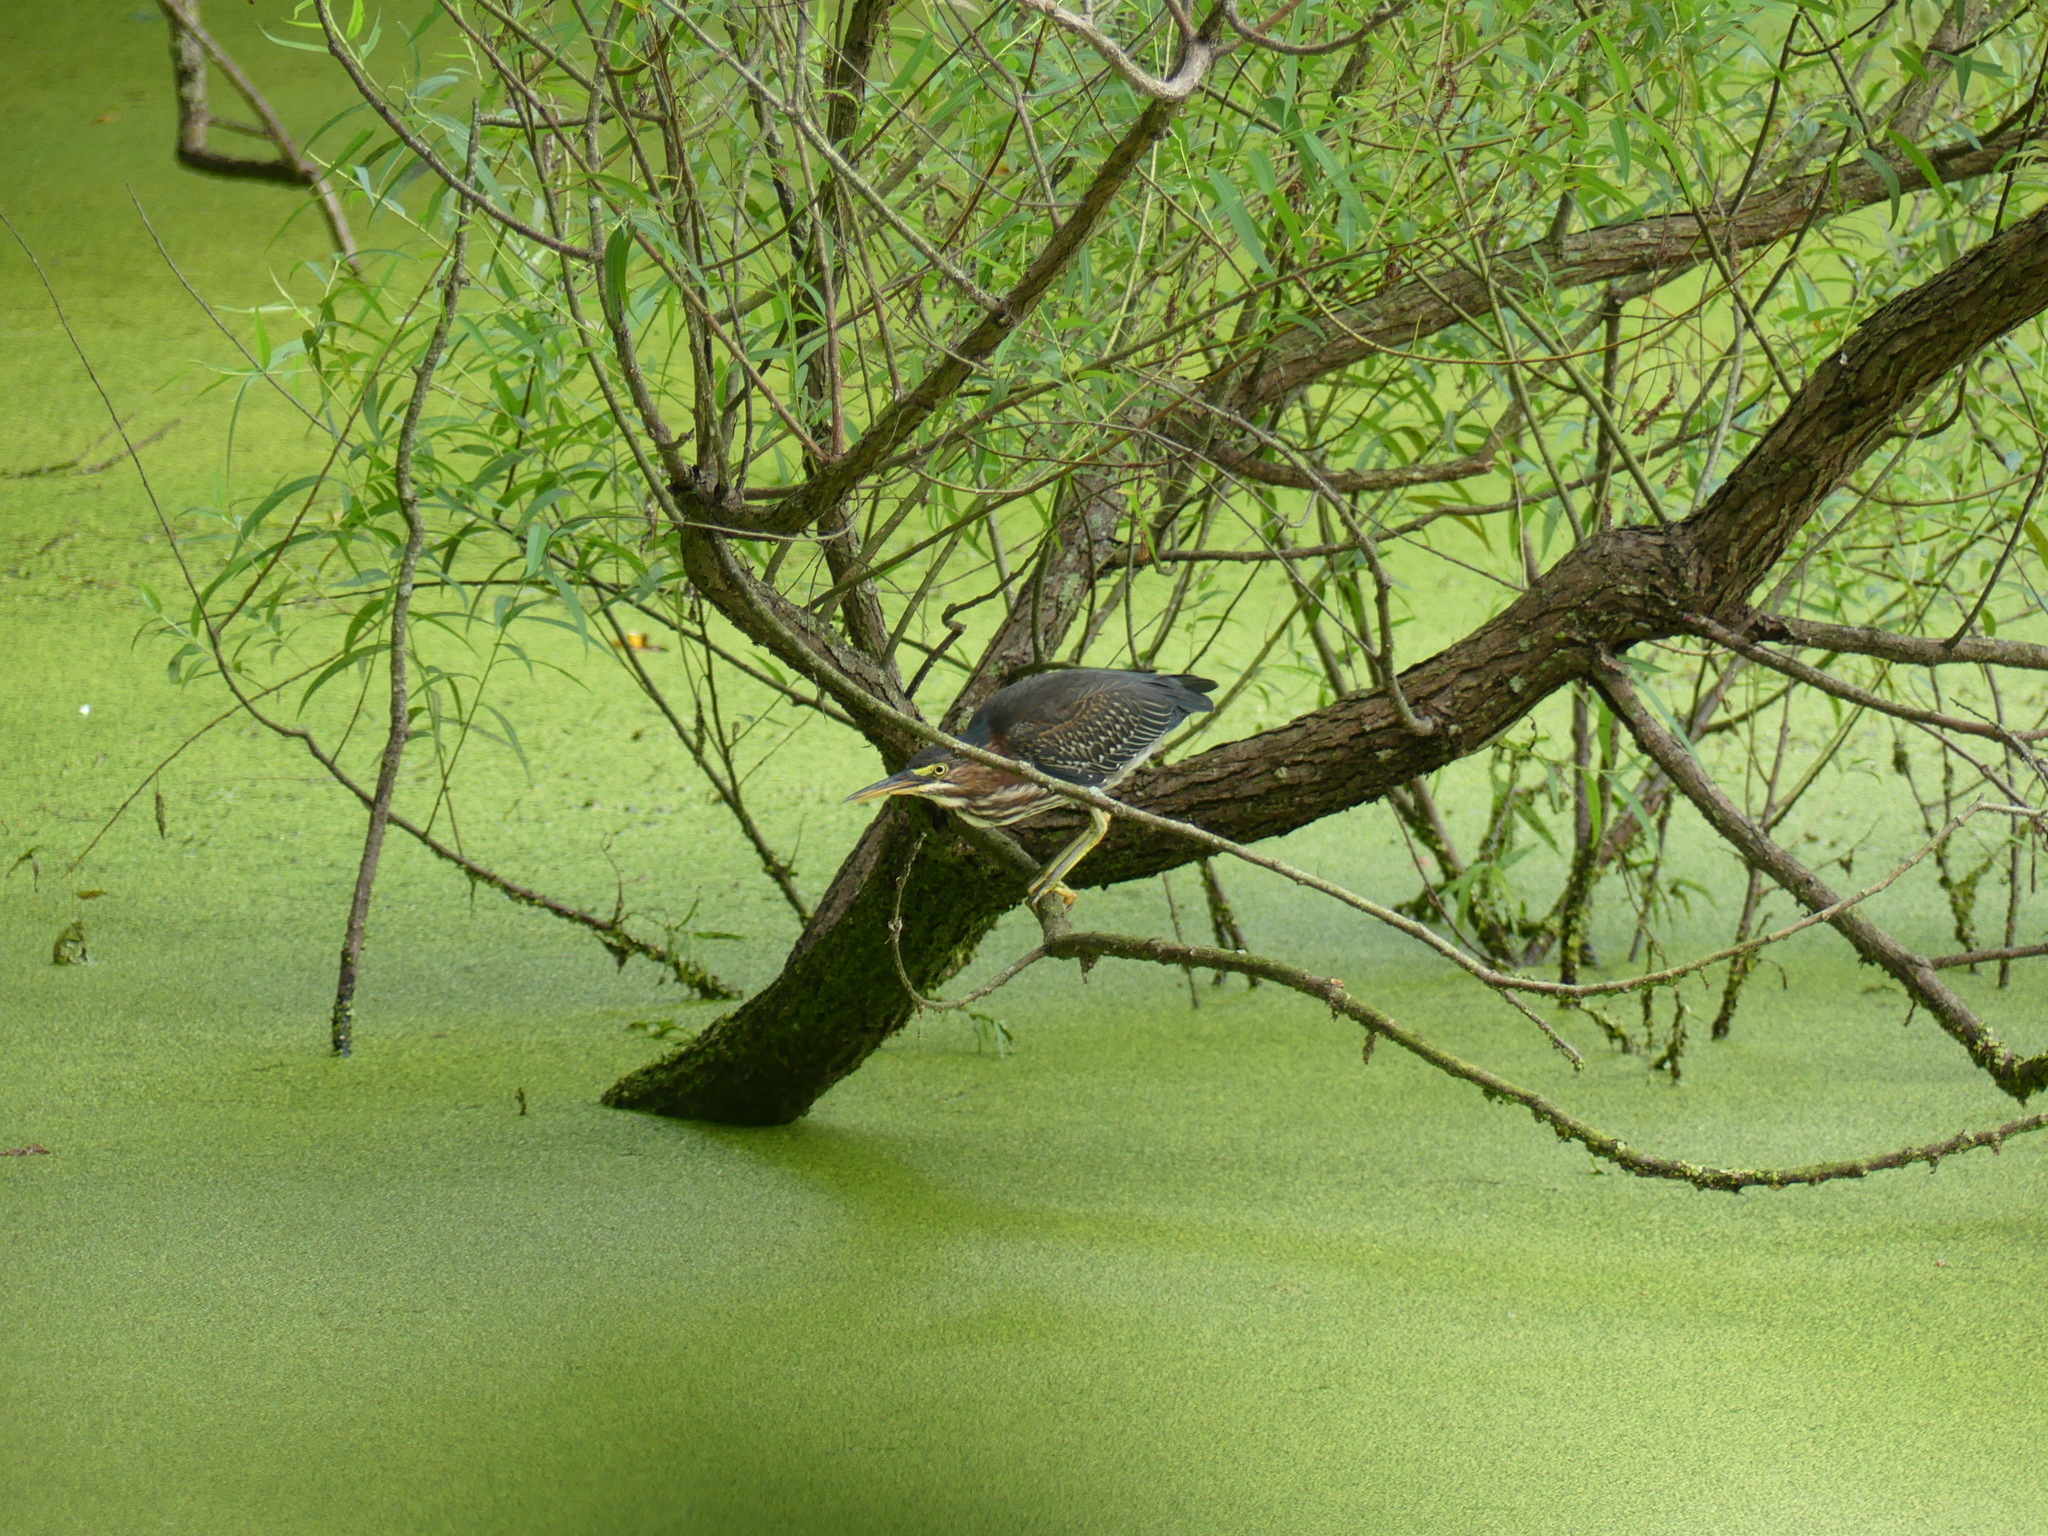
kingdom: Animalia
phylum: Chordata
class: Aves
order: Pelecaniformes
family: Ardeidae
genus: Butorides
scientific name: Butorides virescens
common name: Green heron
